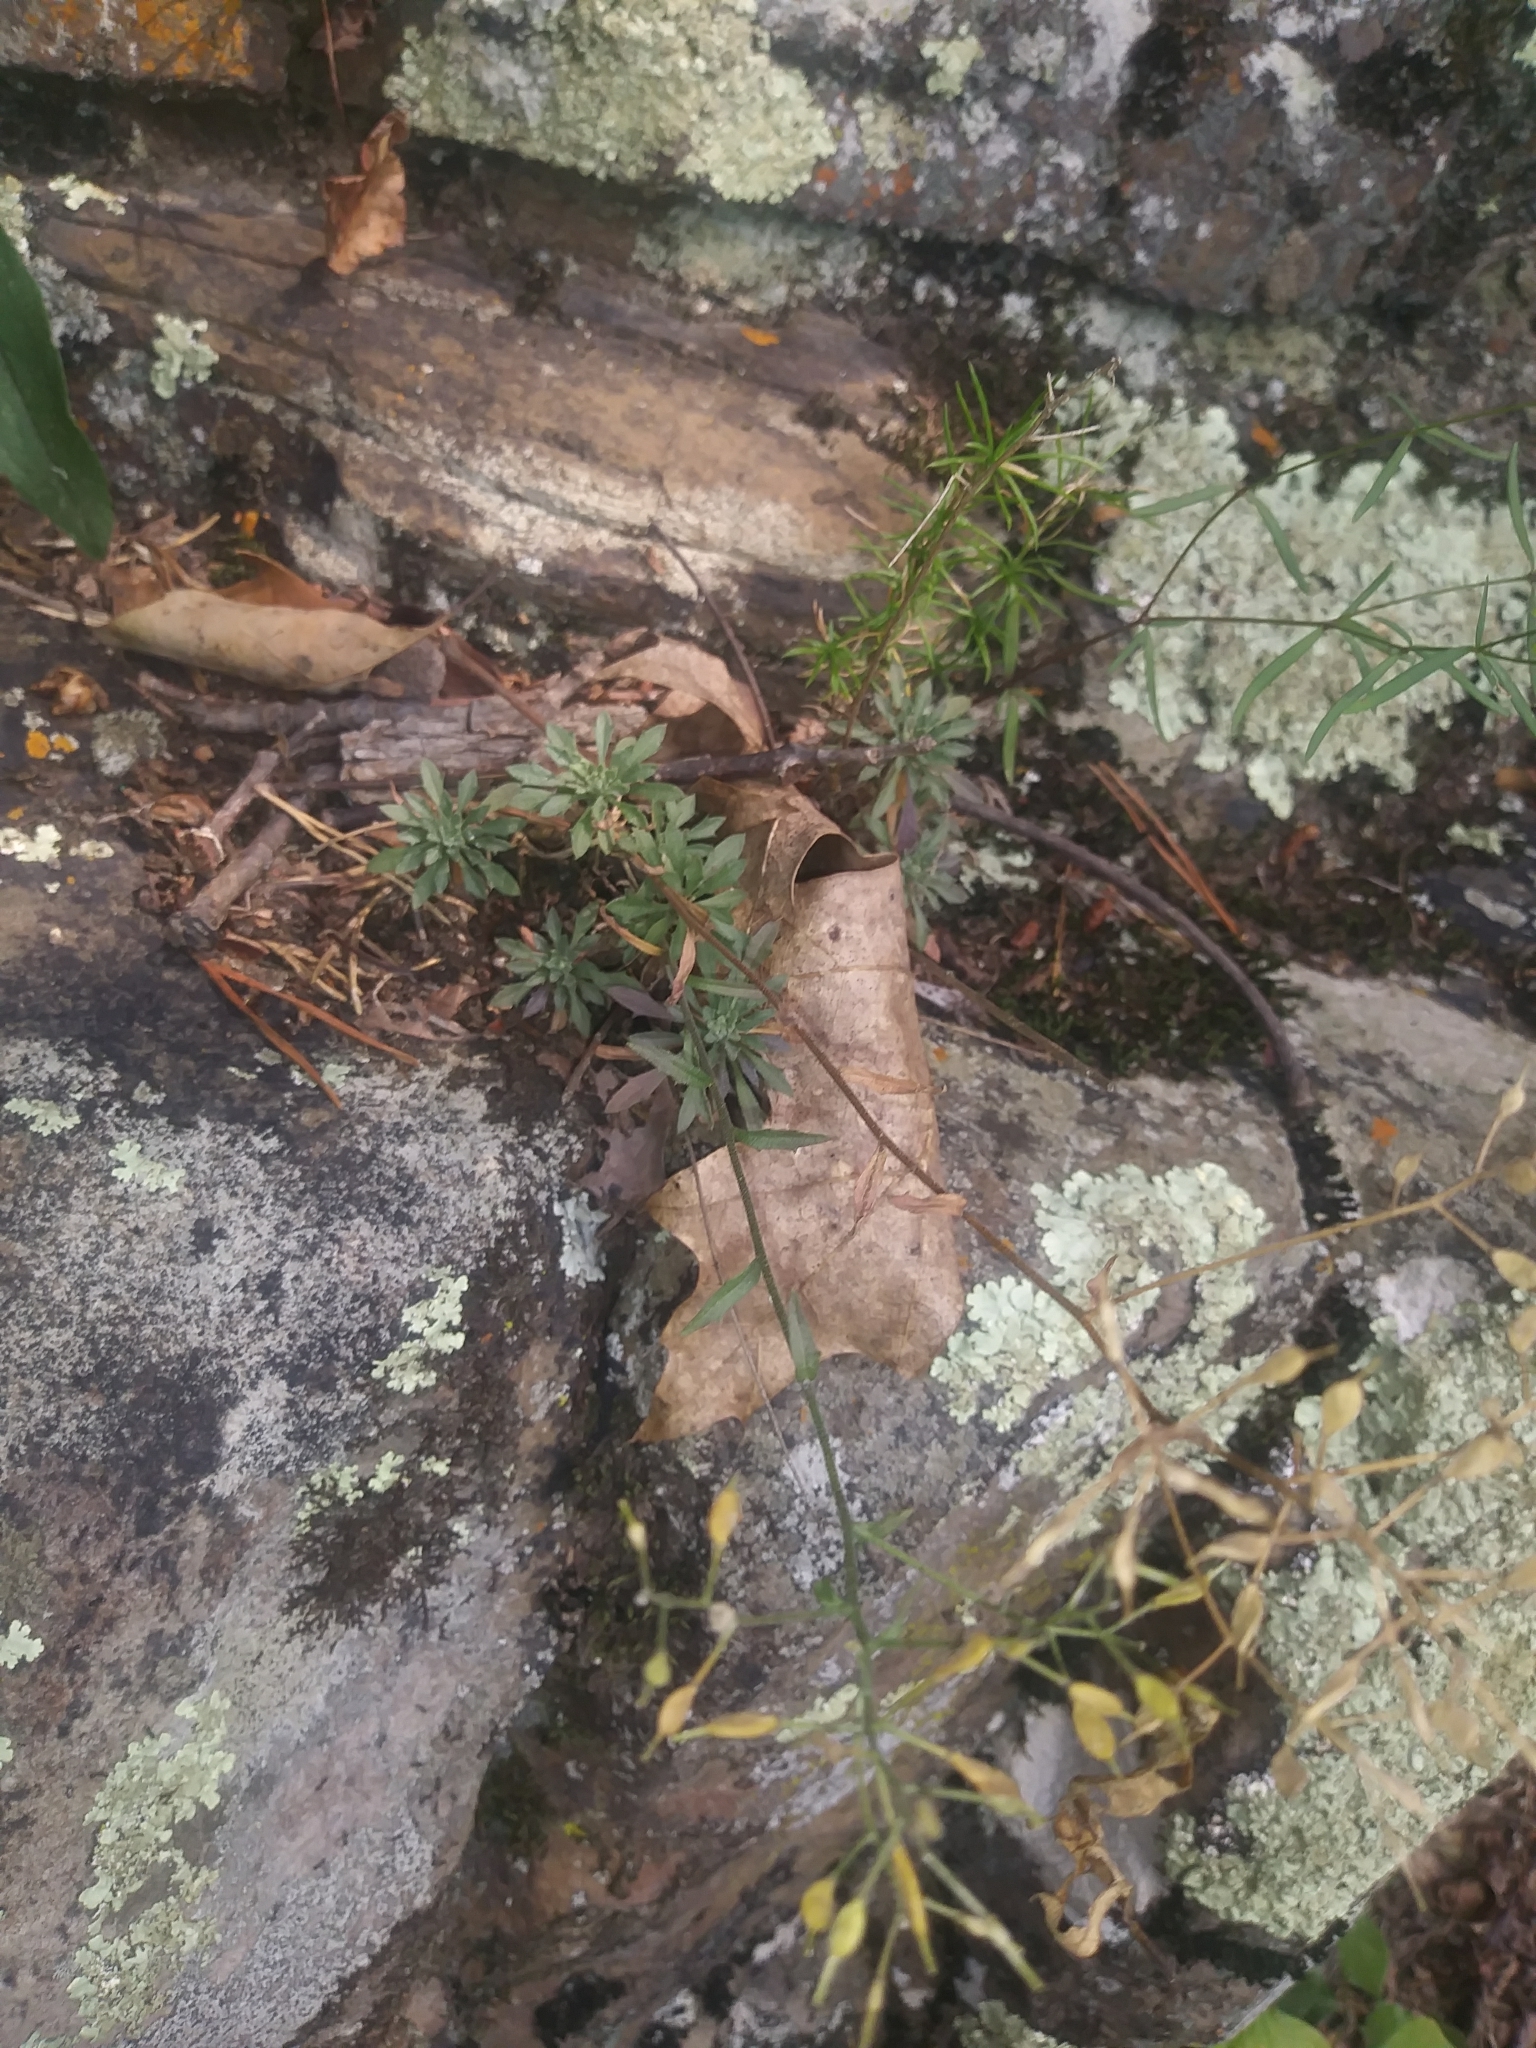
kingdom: Plantae
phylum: Tracheophyta
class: Magnoliopsida
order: Brassicales
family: Brassicaceae
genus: Draba
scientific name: Draba ramosissima
